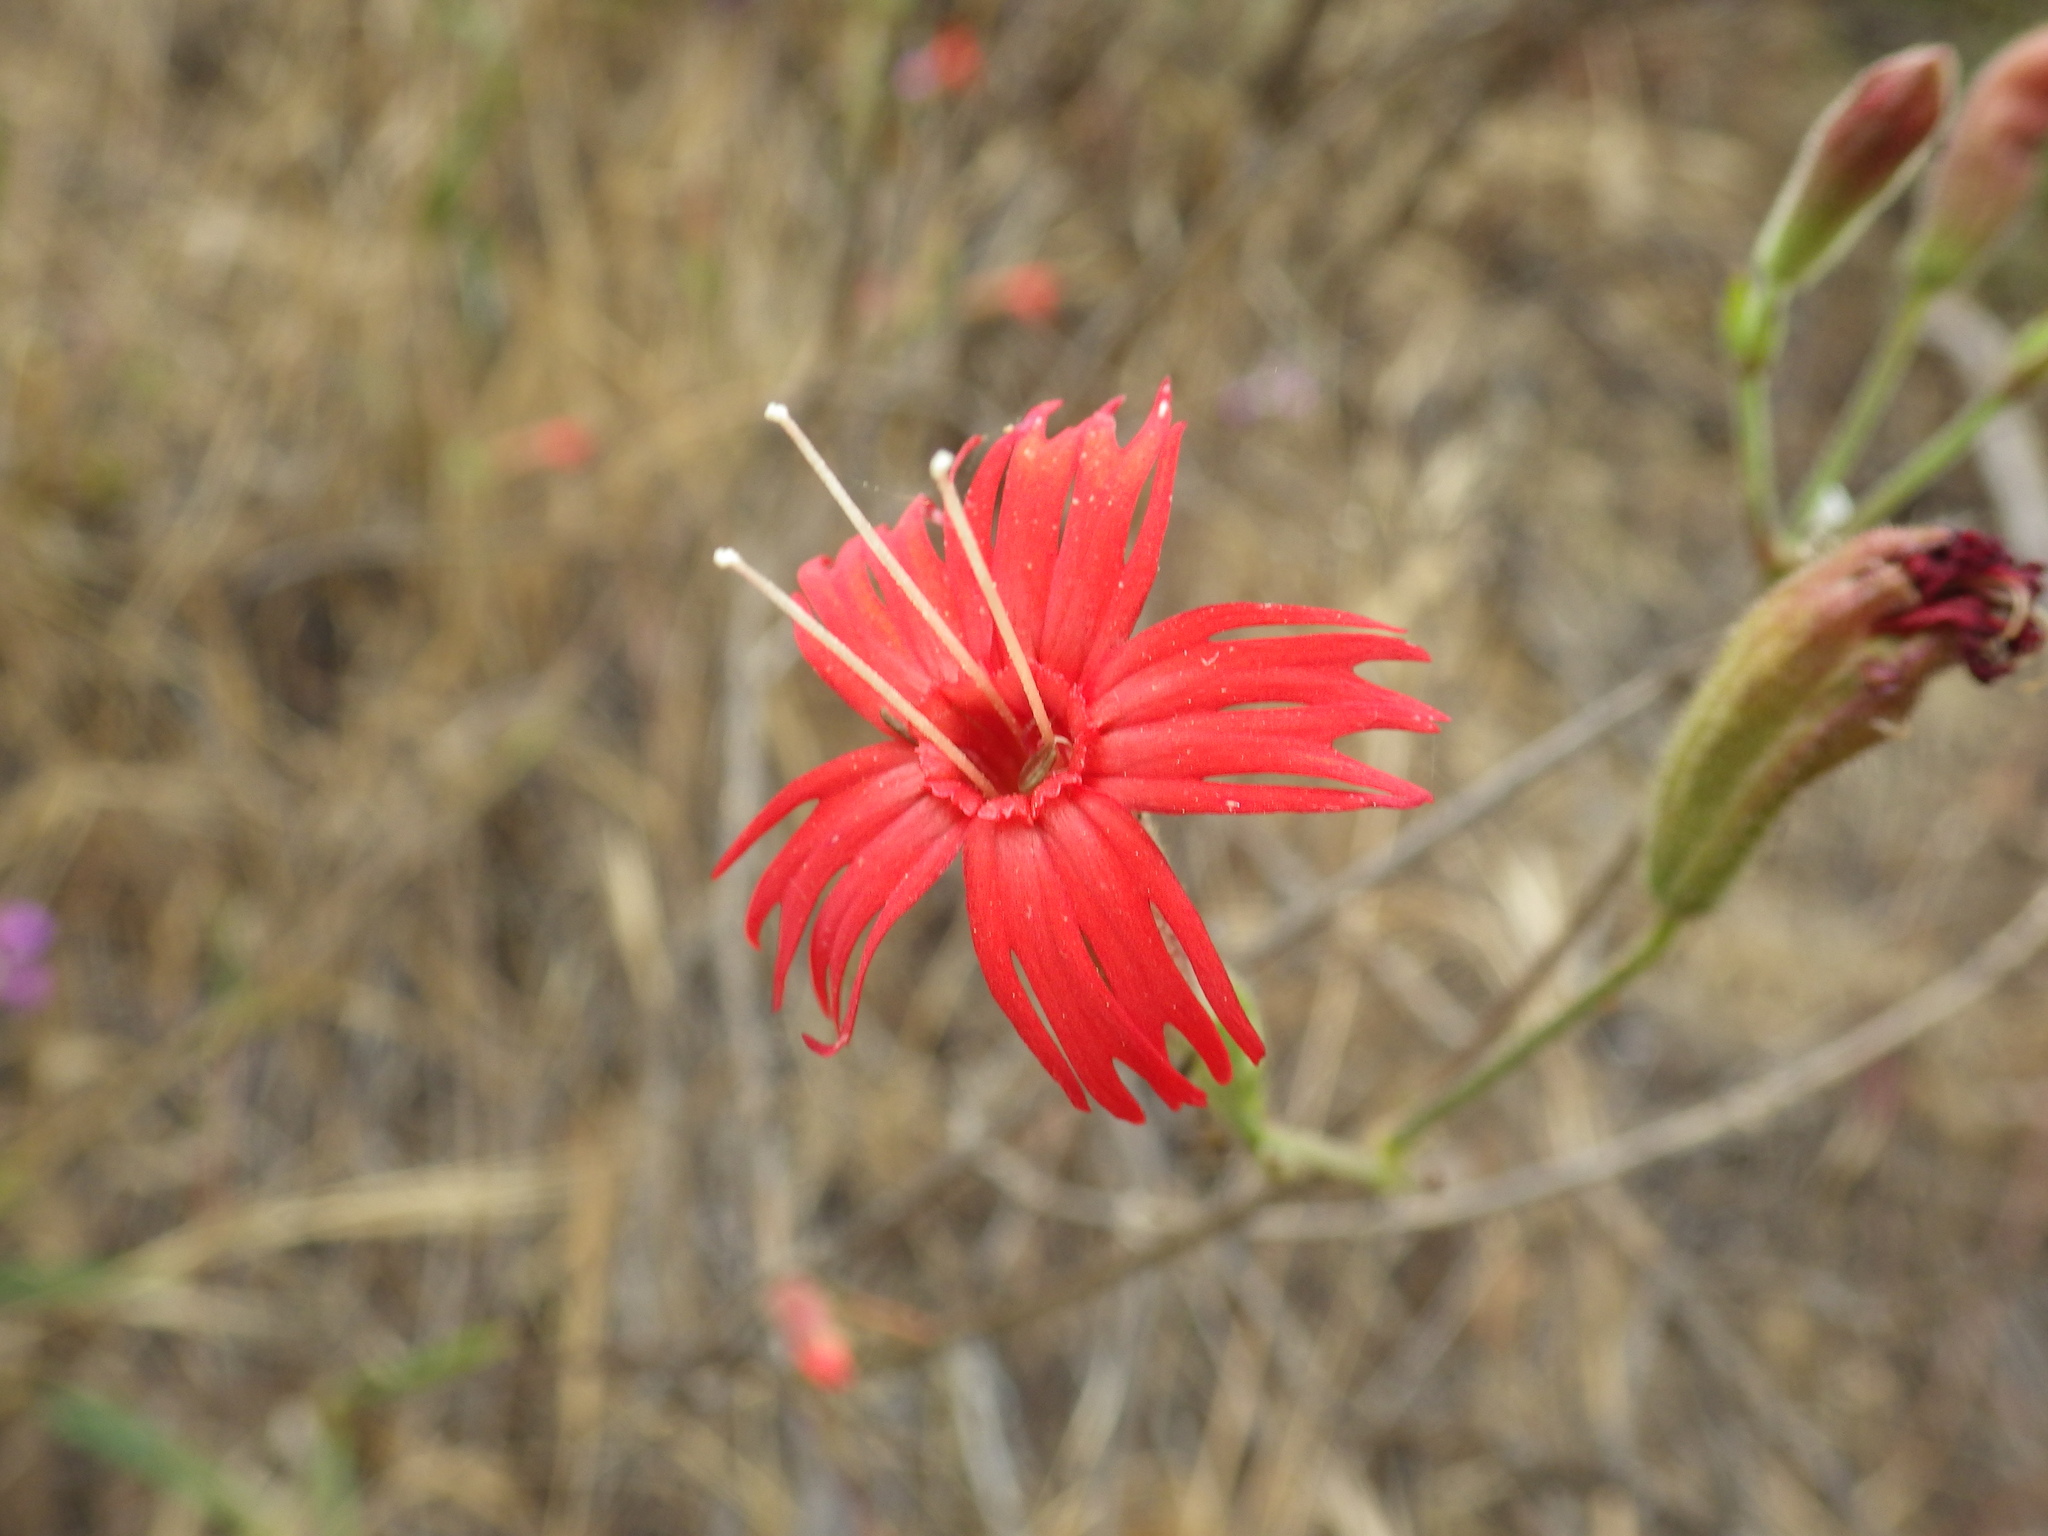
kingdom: Plantae
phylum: Tracheophyta
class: Magnoliopsida
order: Caryophyllales
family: Caryophyllaceae
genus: Silene
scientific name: Silene laciniata
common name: Indian-pink
